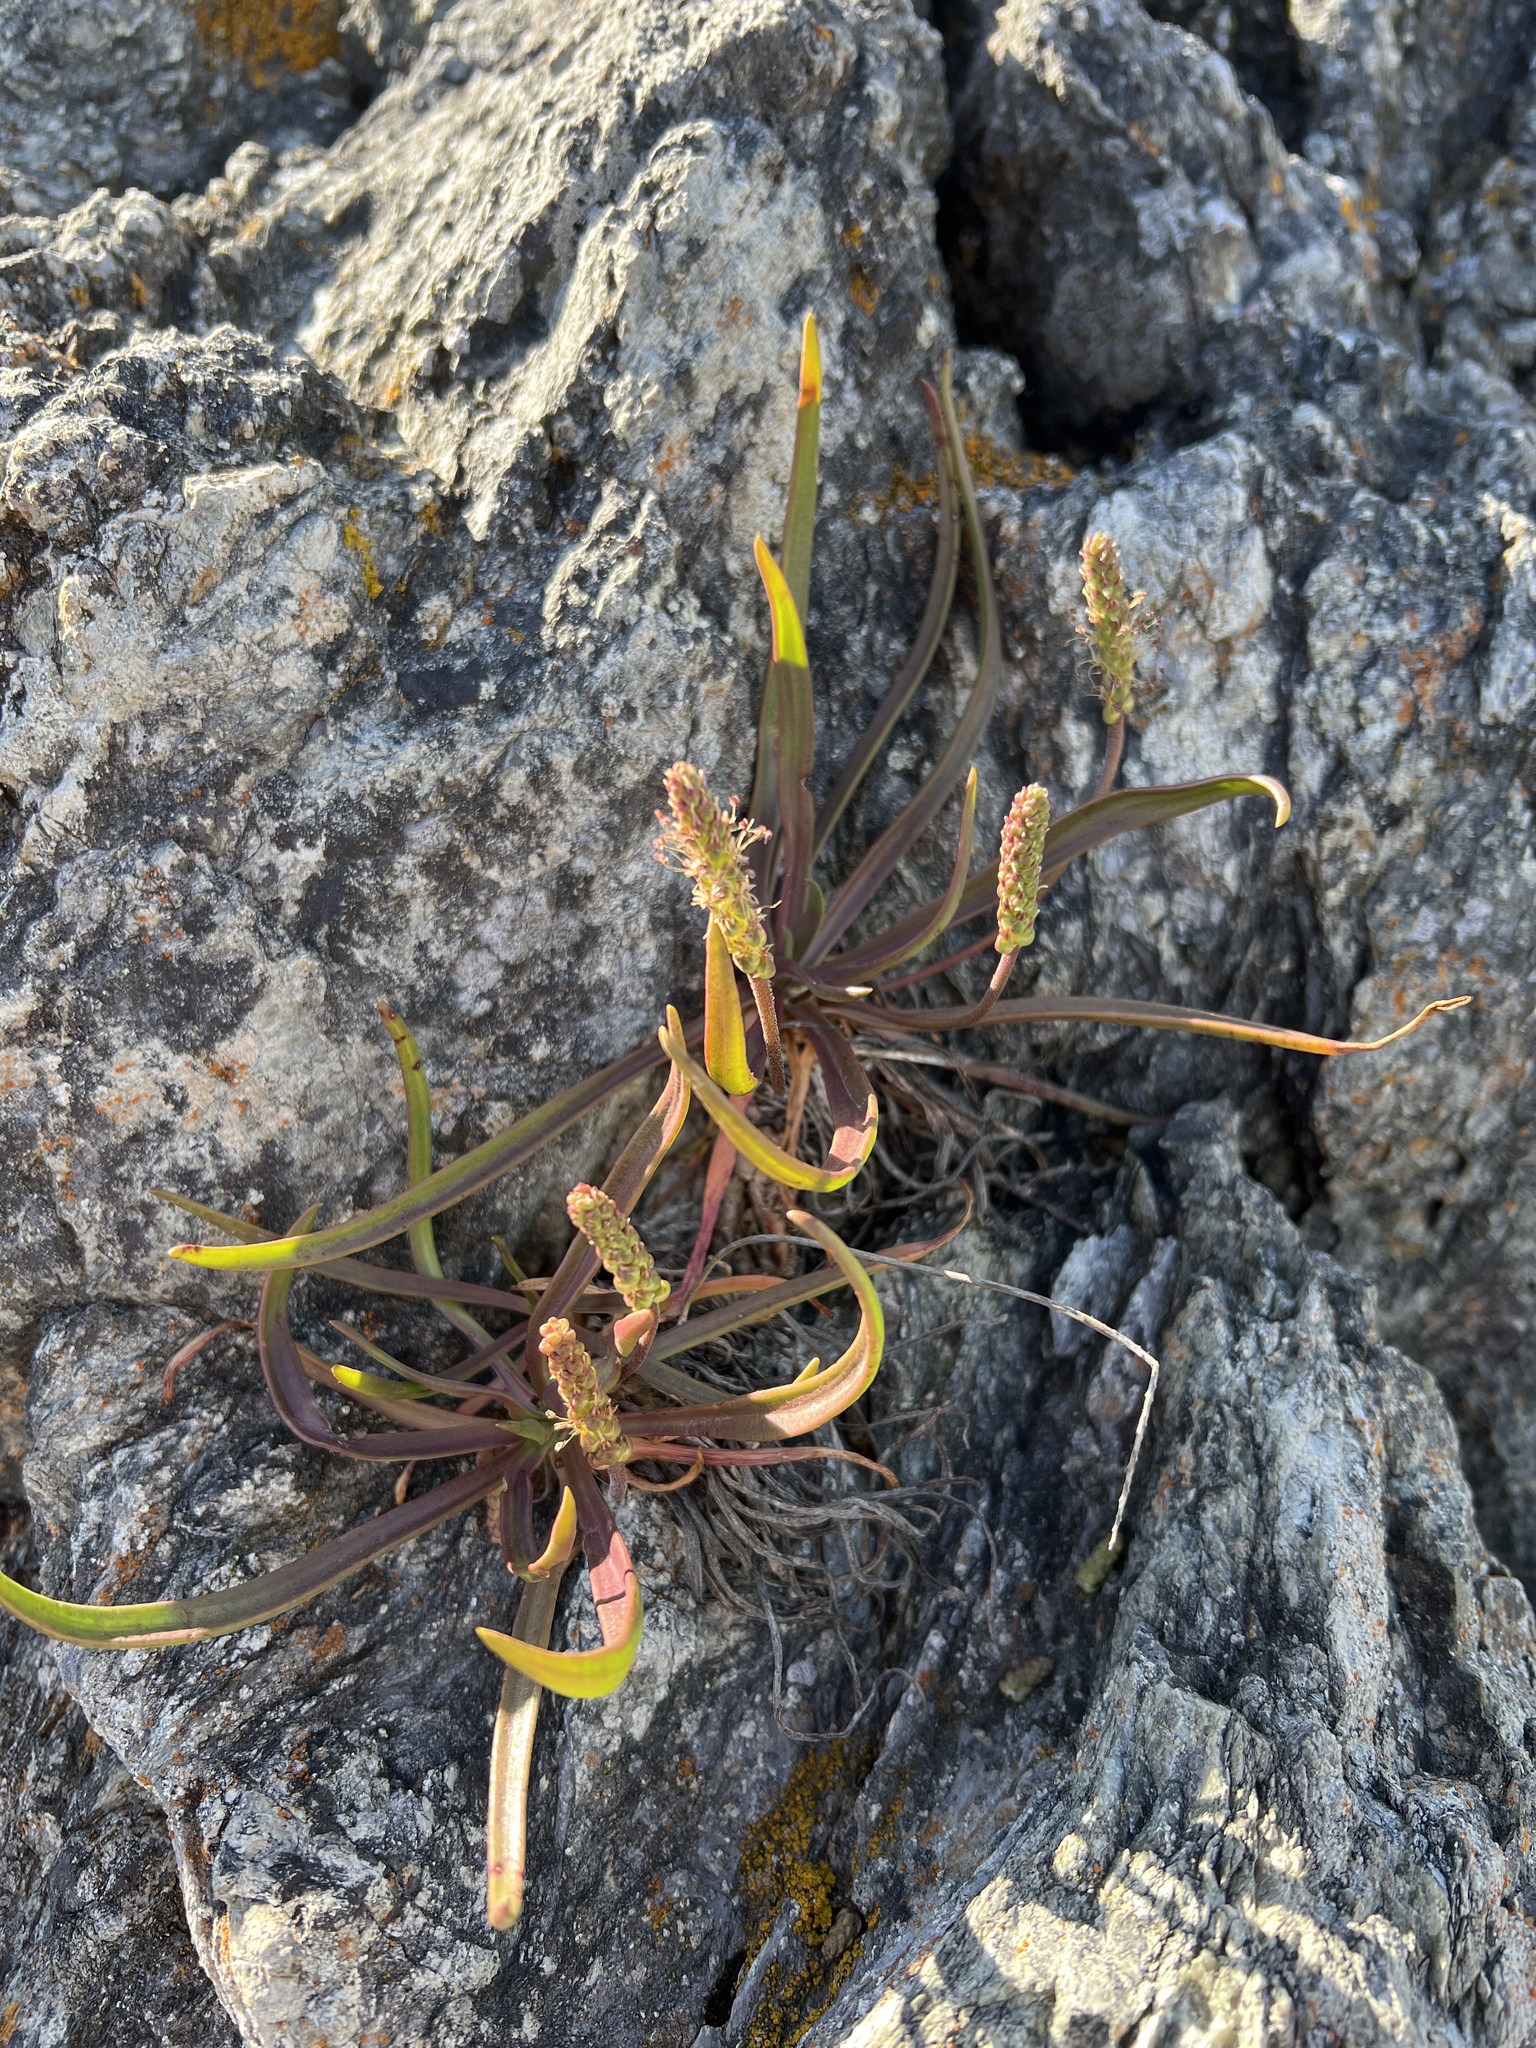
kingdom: Plantae
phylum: Tracheophyta
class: Magnoliopsida
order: Lamiales
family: Plantaginaceae
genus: Plantago
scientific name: Plantago maritima
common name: Sea plantain
